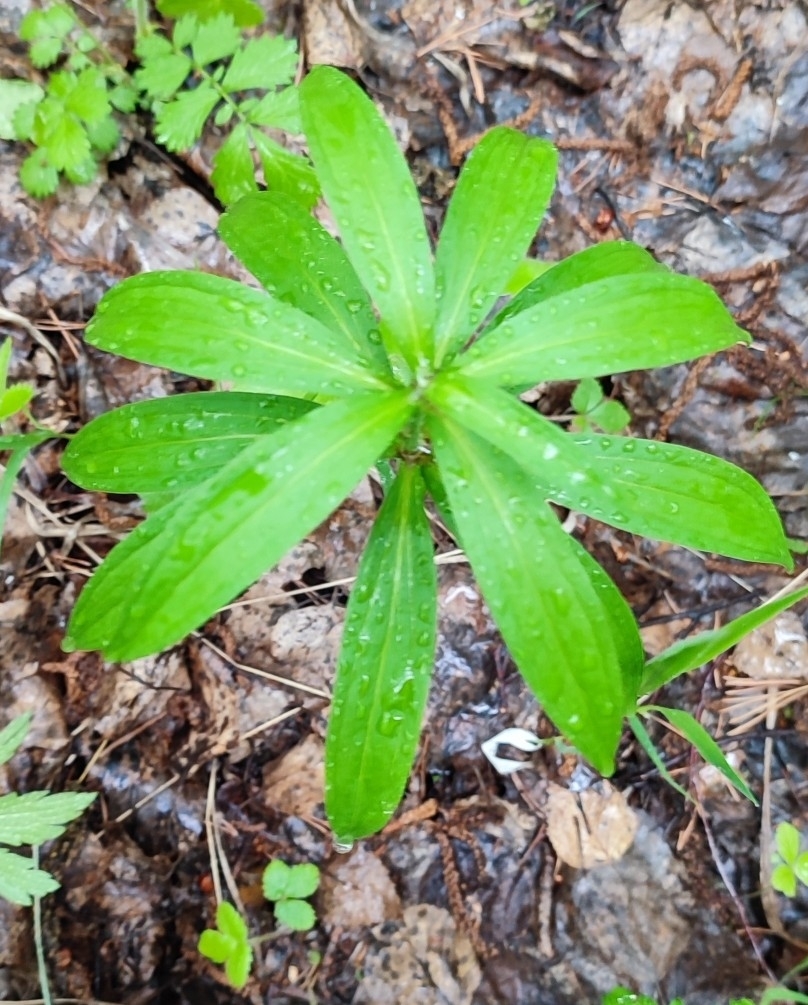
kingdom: Plantae
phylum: Tracheophyta
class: Liliopsida
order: Liliales
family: Liliaceae
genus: Lilium
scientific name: Lilium martagon
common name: Martagon lily
